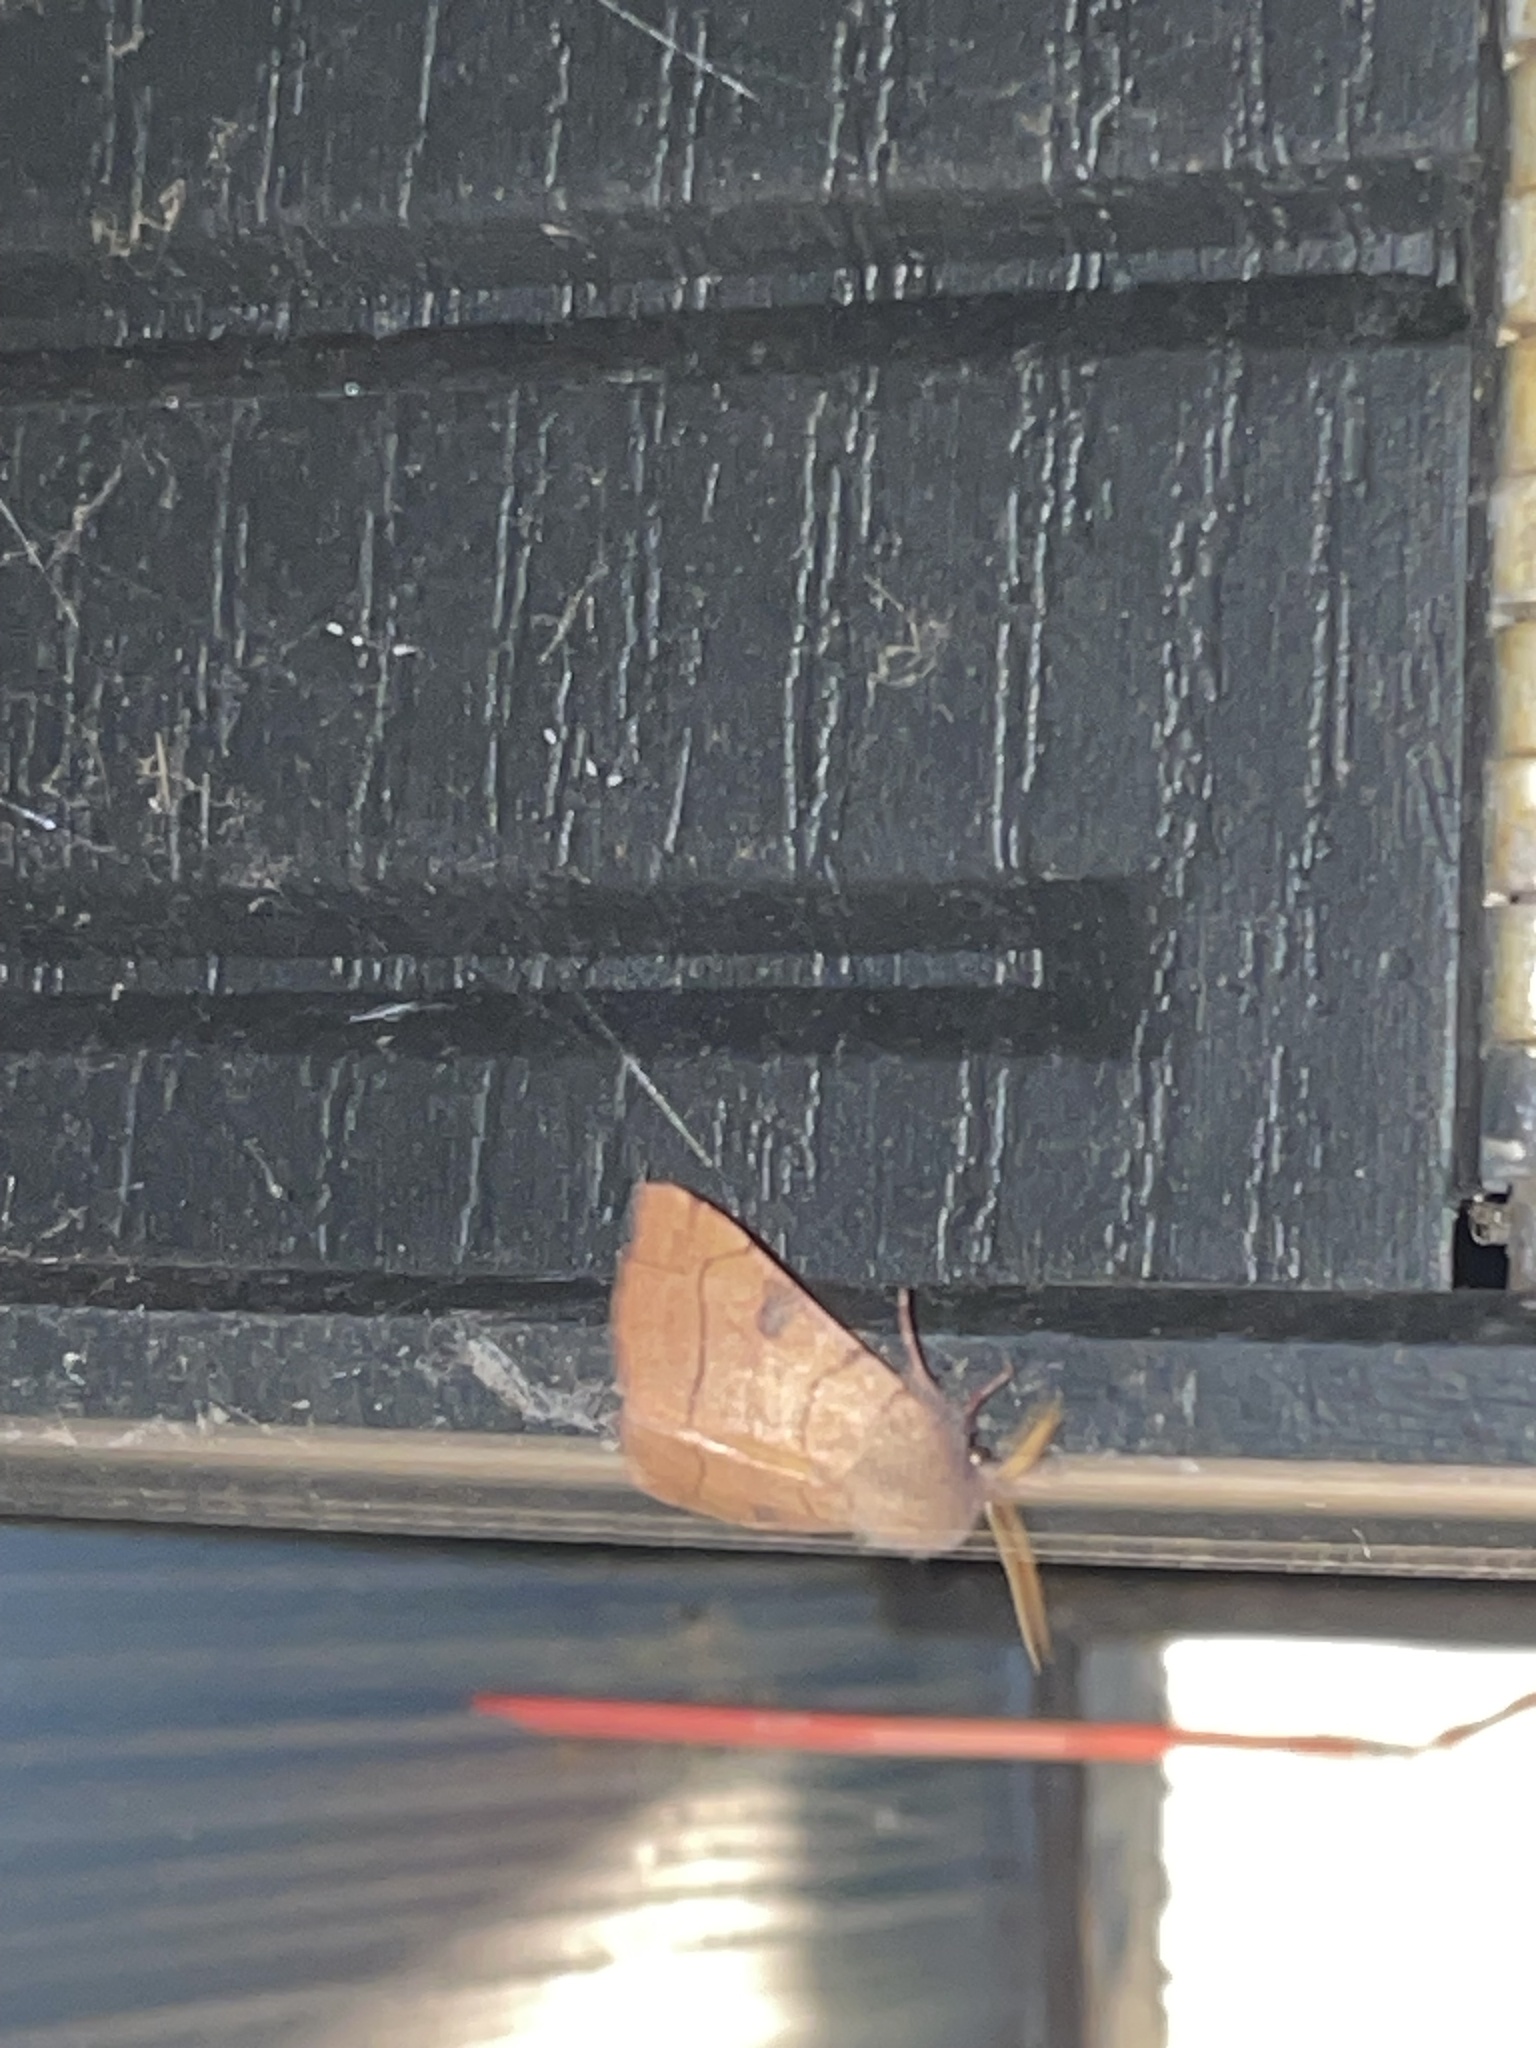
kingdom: Animalia
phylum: Arthropoda
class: Insecta
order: Lepidoptera
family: Noctuidae
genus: Choephora
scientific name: Choephora fungorum
